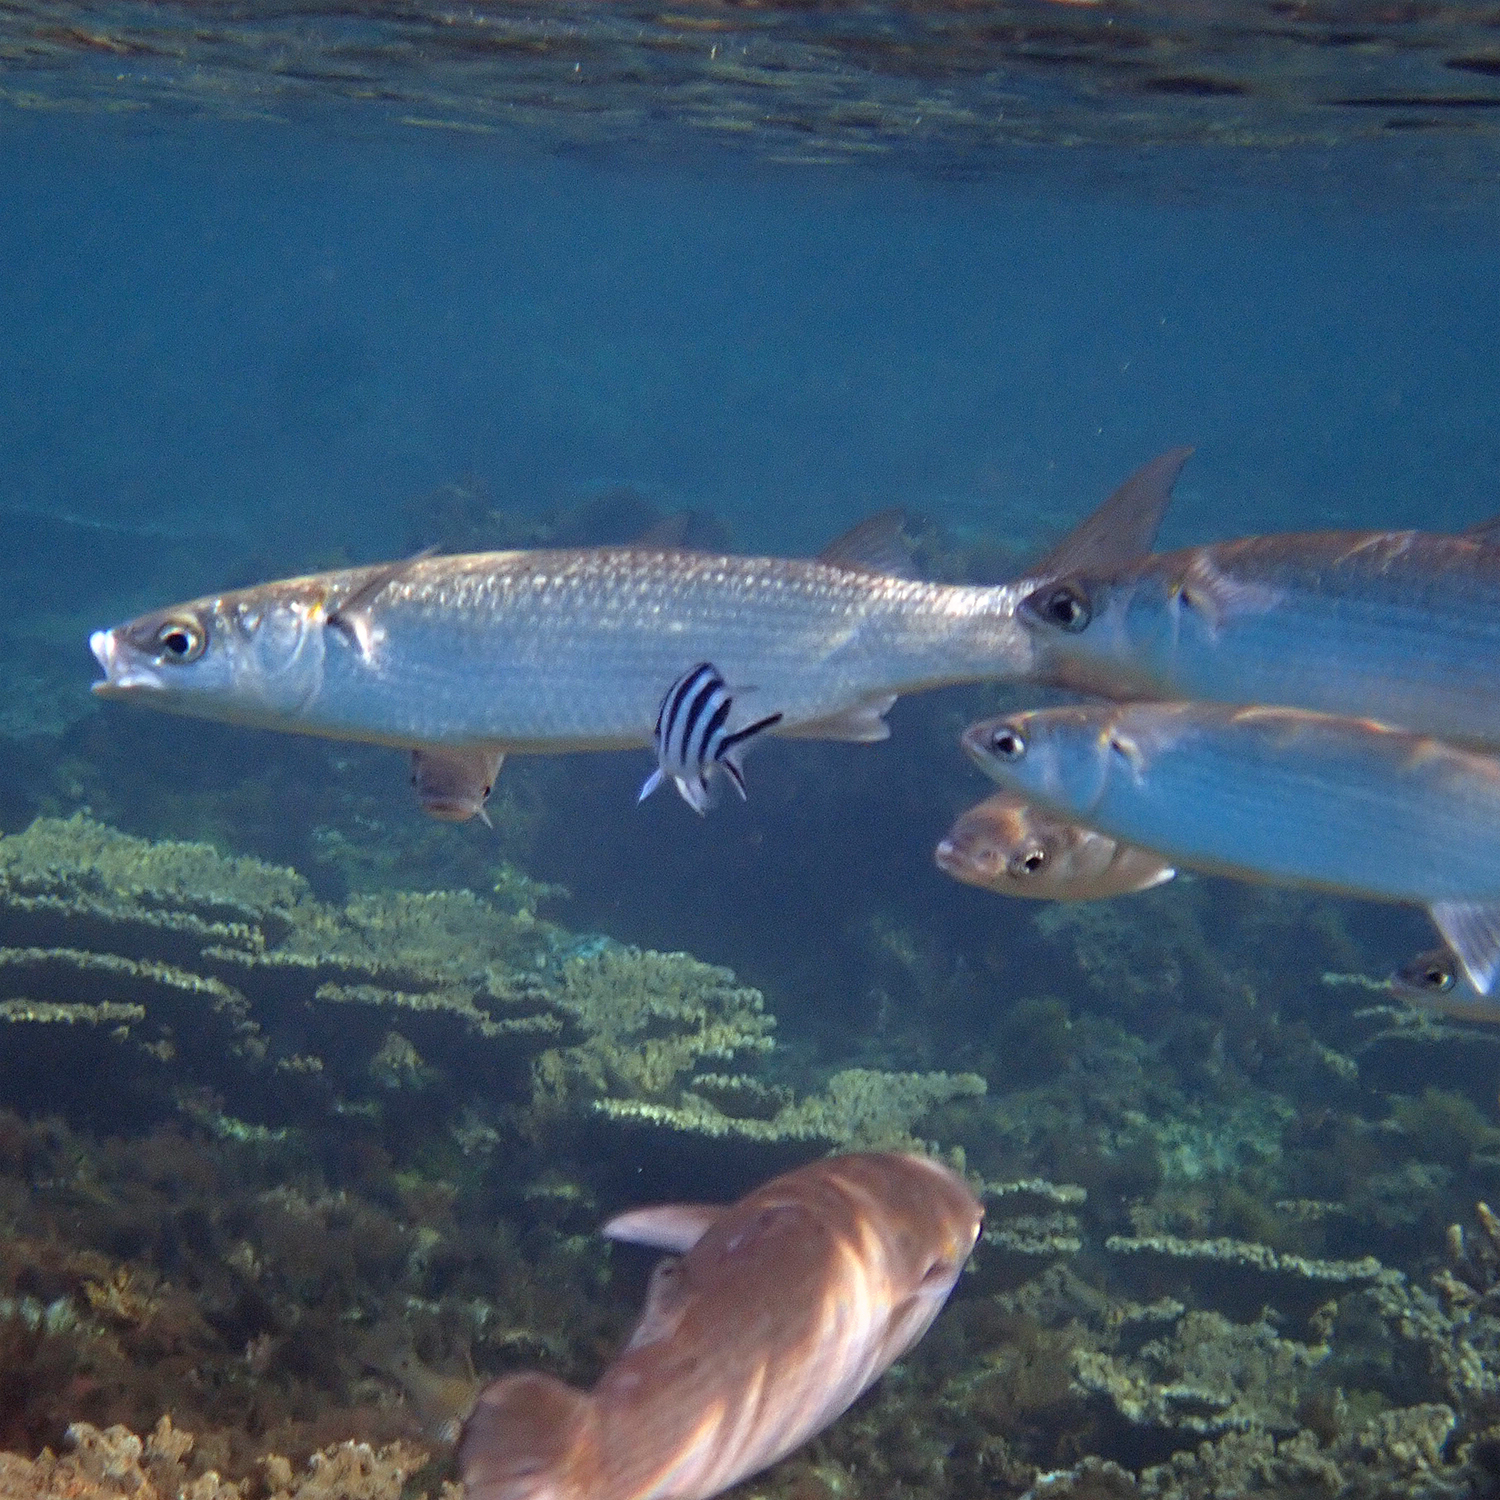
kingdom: Animalia
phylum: Chordata
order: Mugiliformes
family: Mugilidae
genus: Myxus
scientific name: Myxus elongatus
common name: Sand grey mullet
